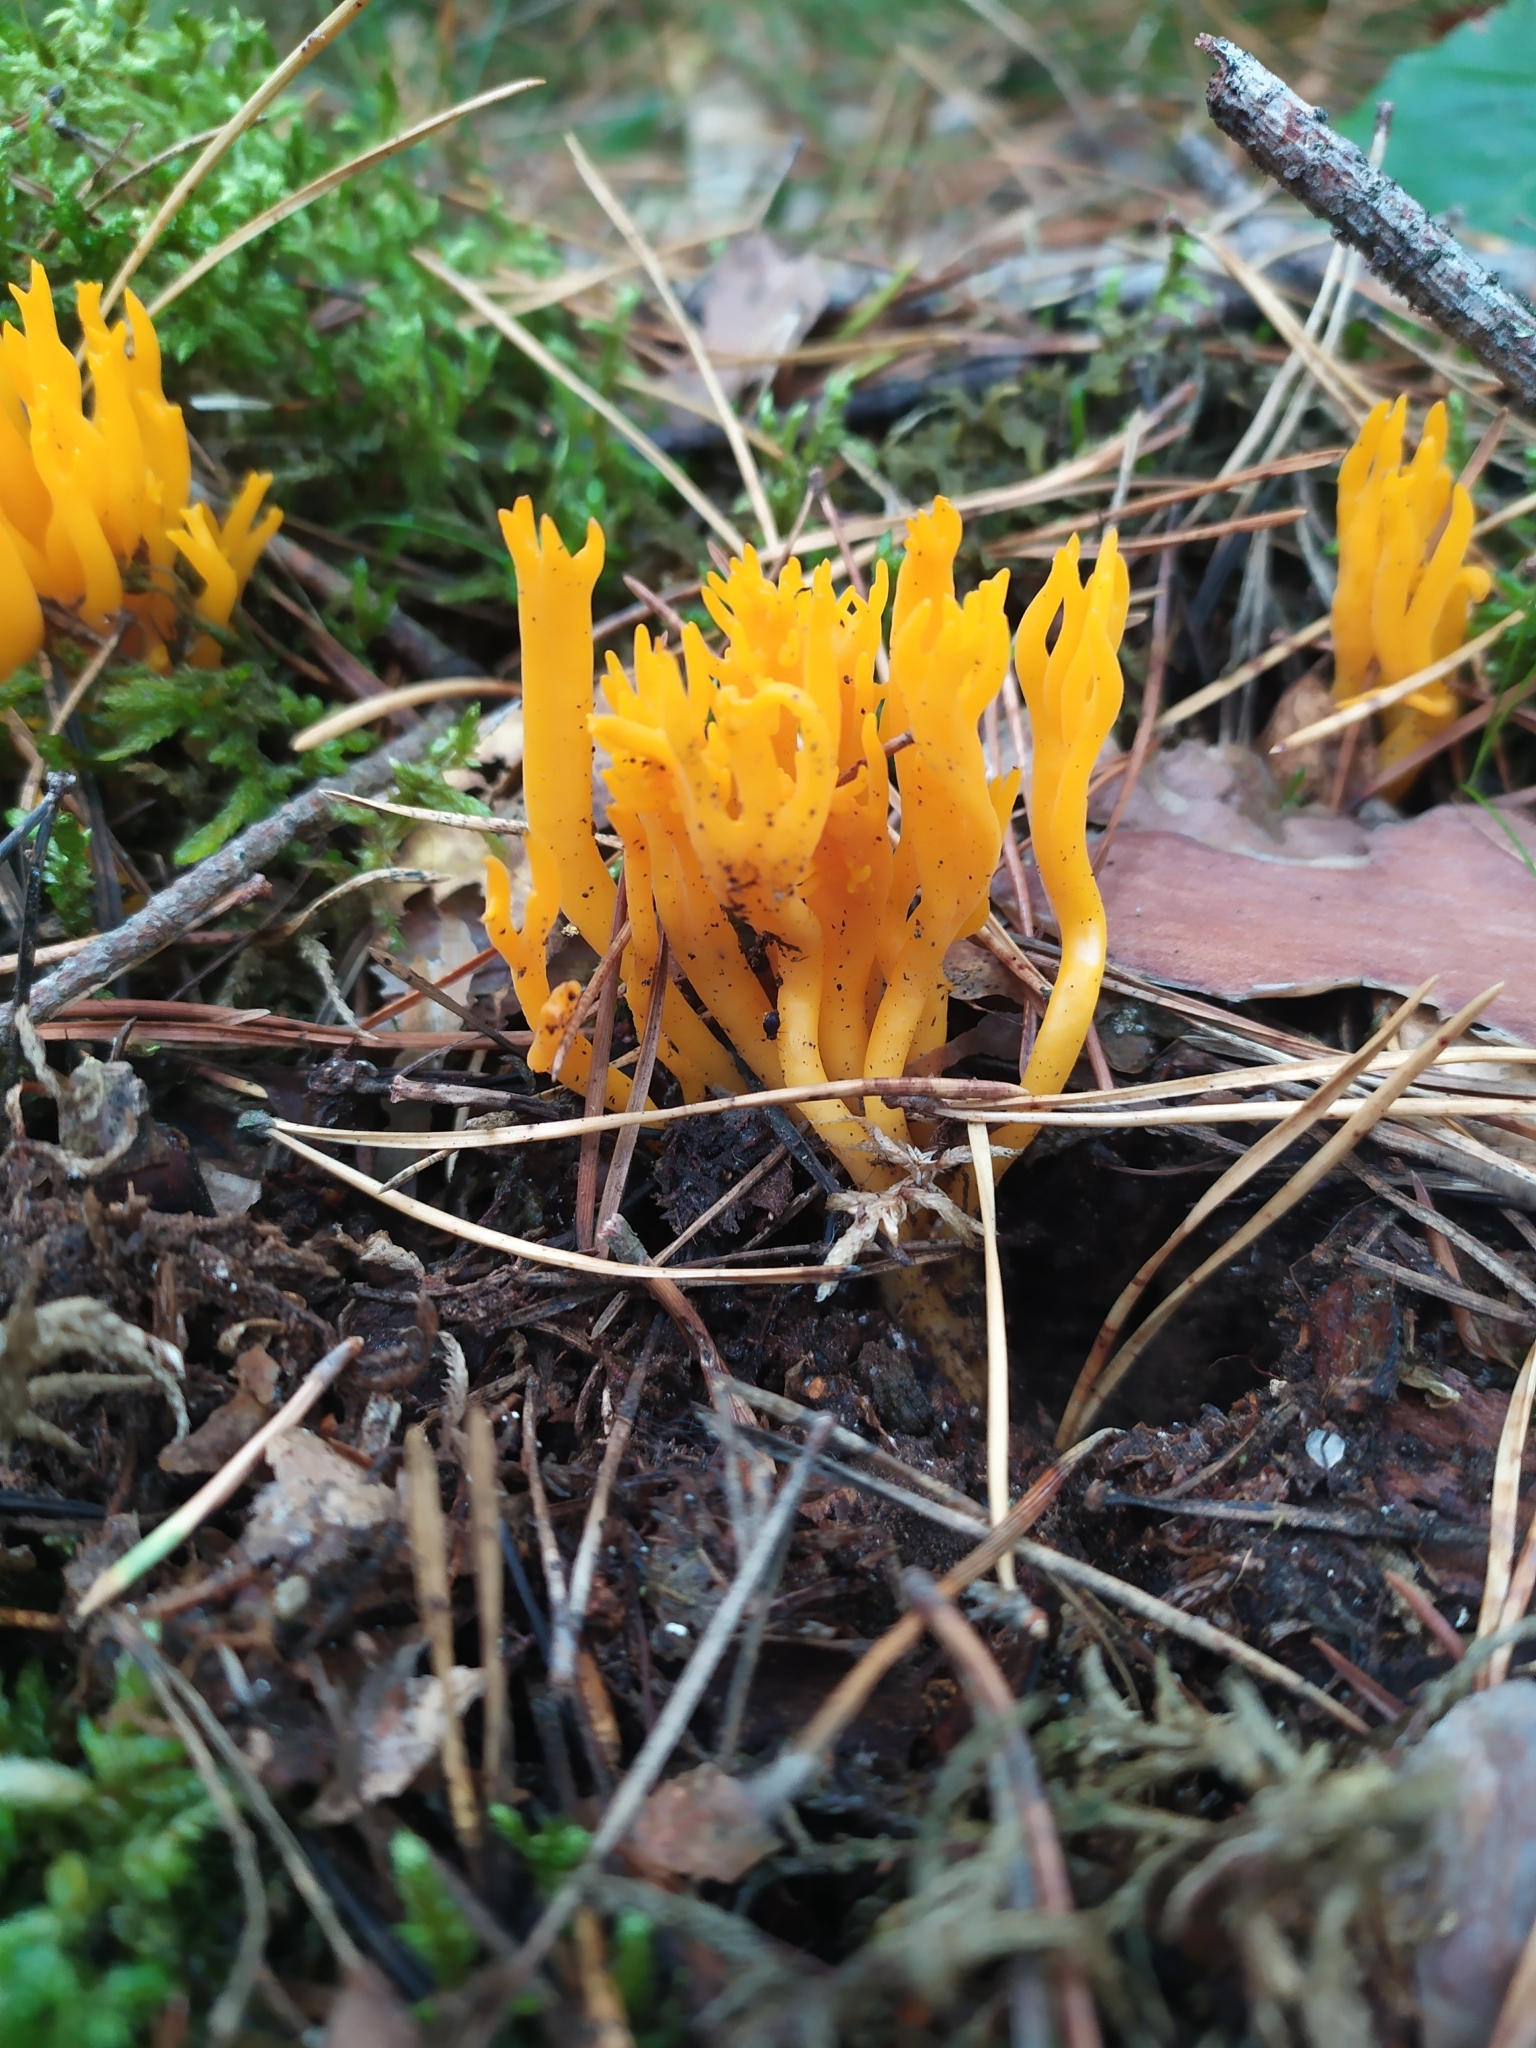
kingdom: Fungi
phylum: Basidiomycota
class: Dacrymycetes
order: Dacrymycetales
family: Dacrymycetaceae
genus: Calocera
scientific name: Calocera viscosa
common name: Yellow stagshorn
